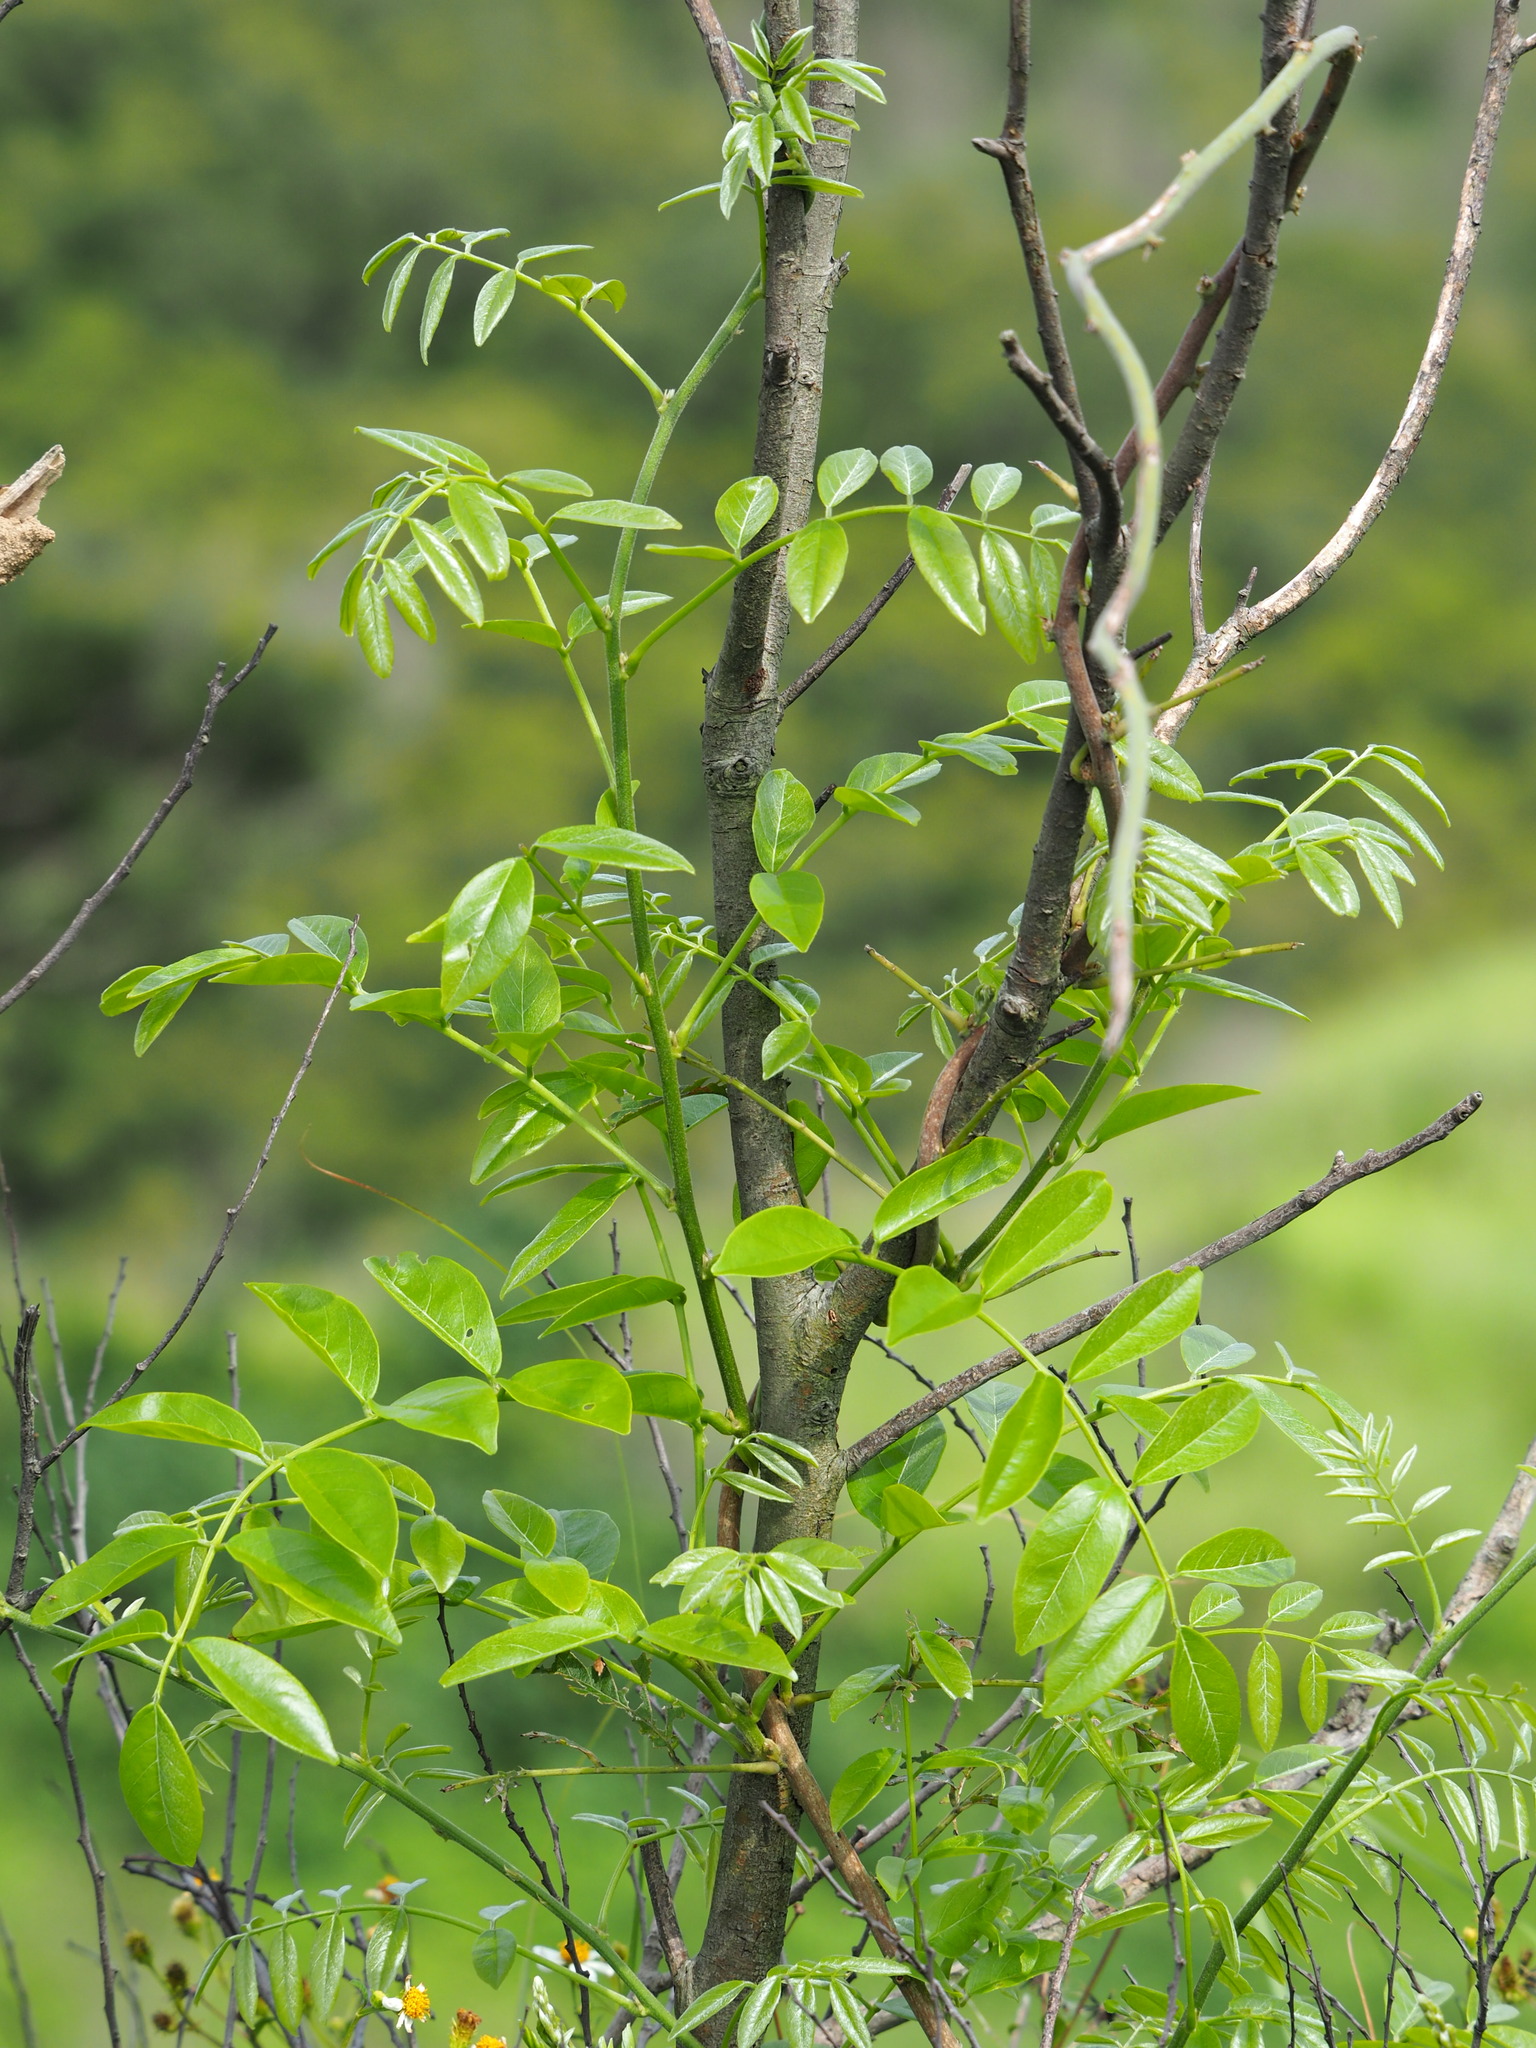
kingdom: Plantae
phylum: Tracheophyta
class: Magnoliopsida
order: Fabales
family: Fabaceae
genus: Wisteriopsis
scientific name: Wisteriopsis reticulata
